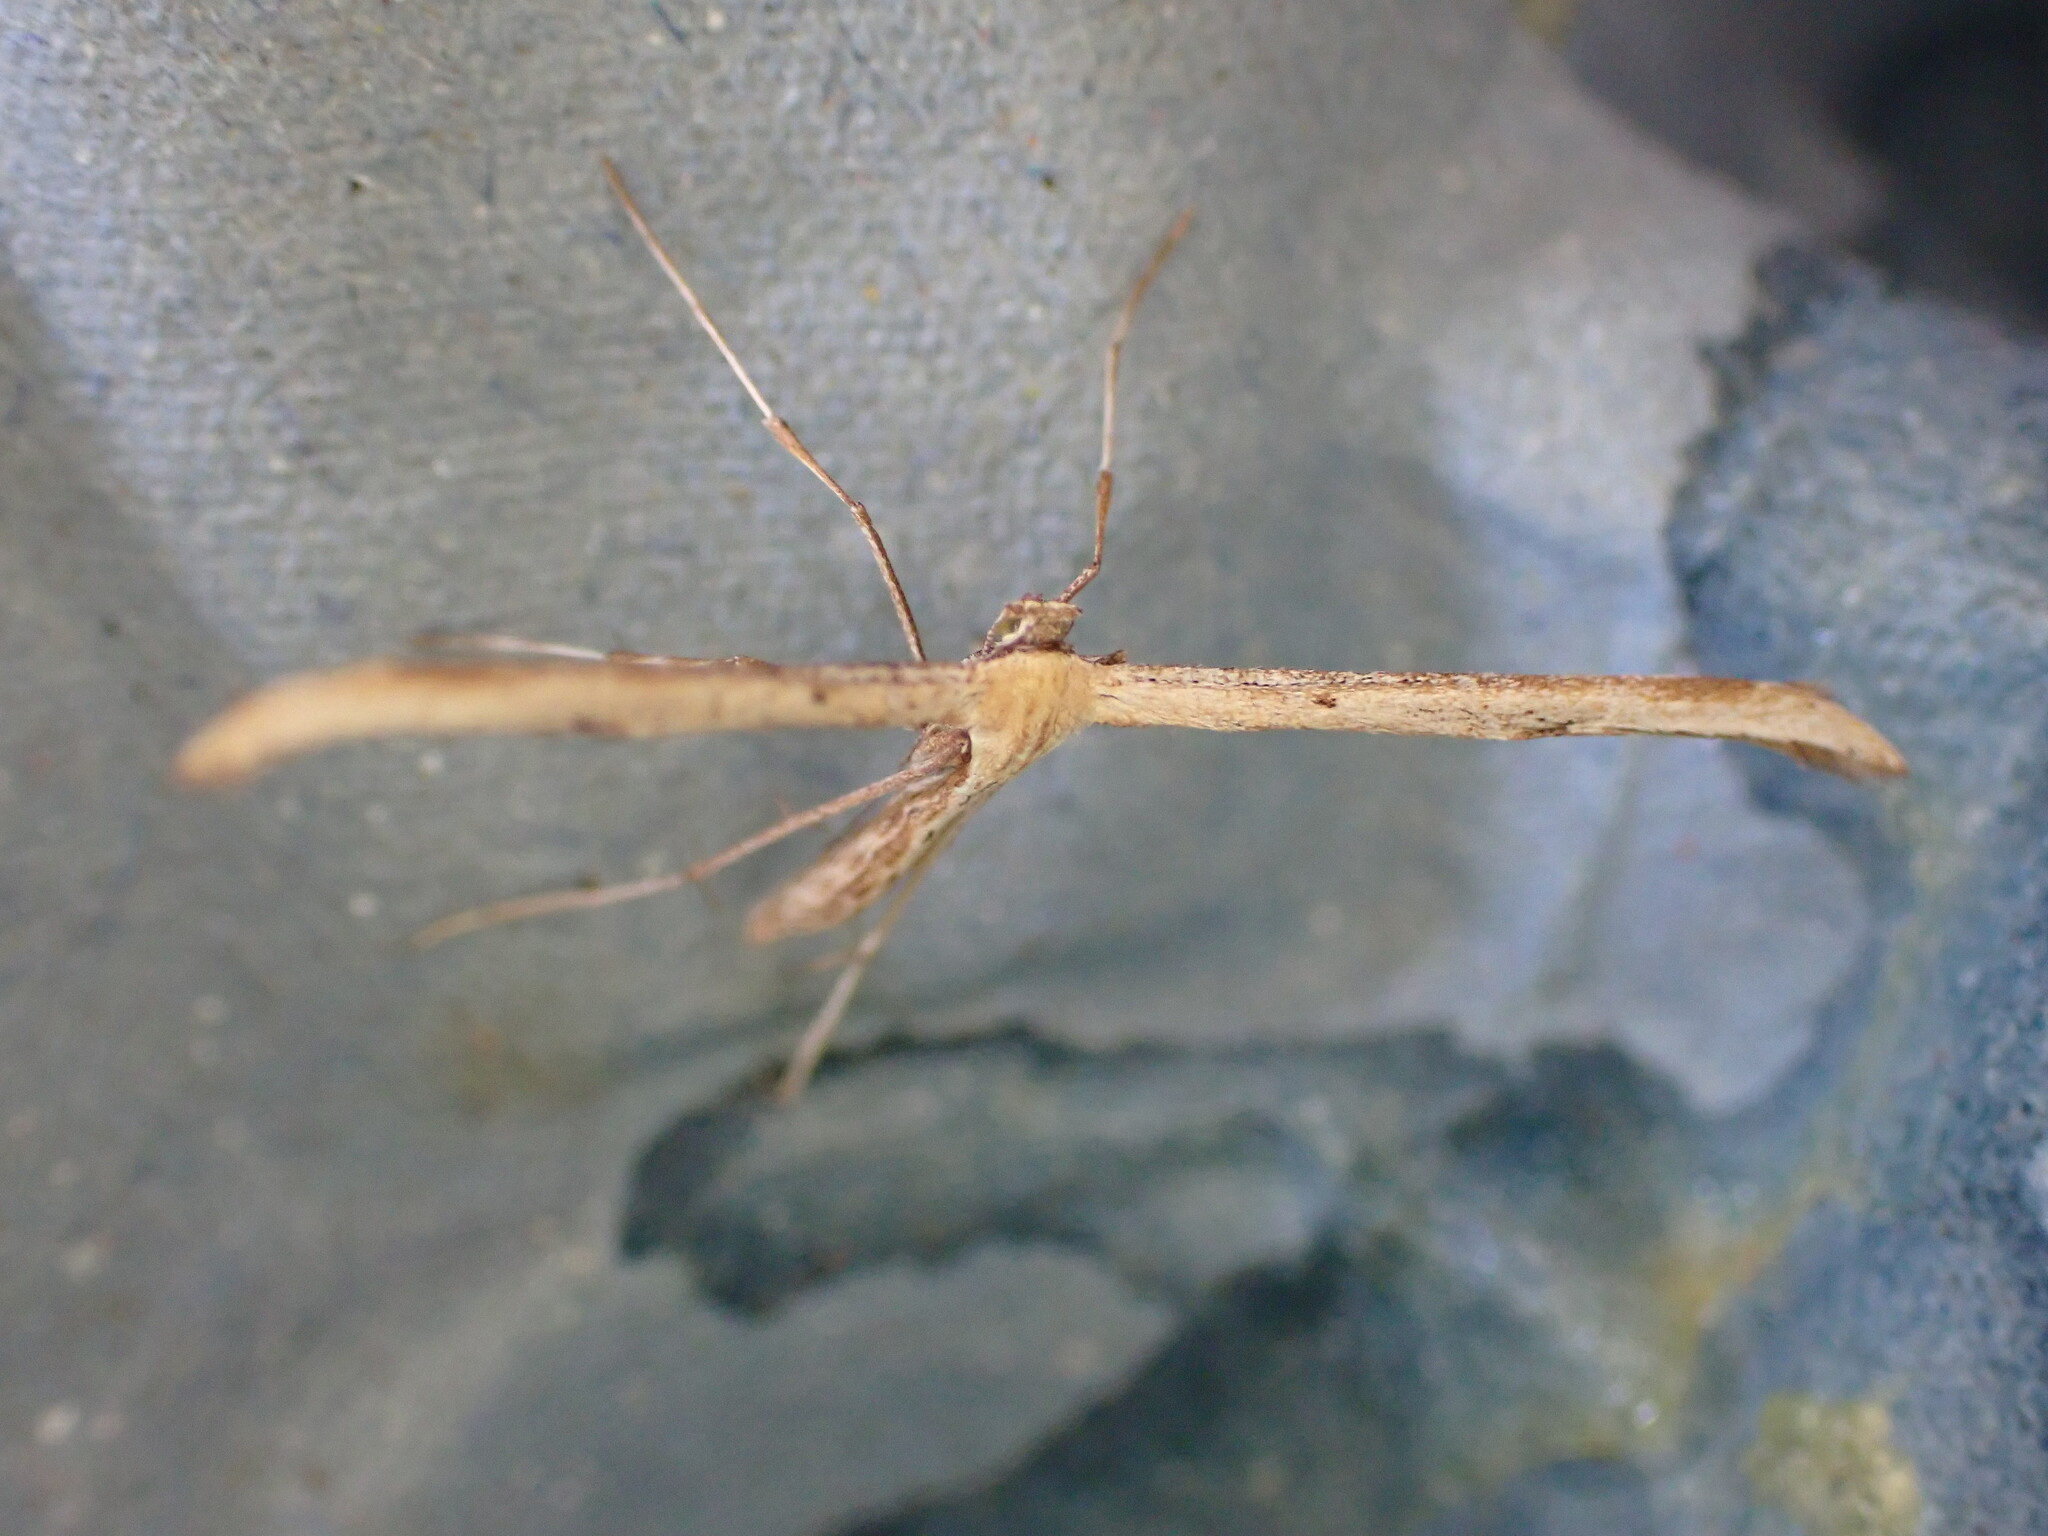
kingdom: Animalia
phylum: Arthropoda
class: Insecta
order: Lepidoptera
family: Pterophoridae
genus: Emmelina
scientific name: Emmelina monodactyla
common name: Common plume
